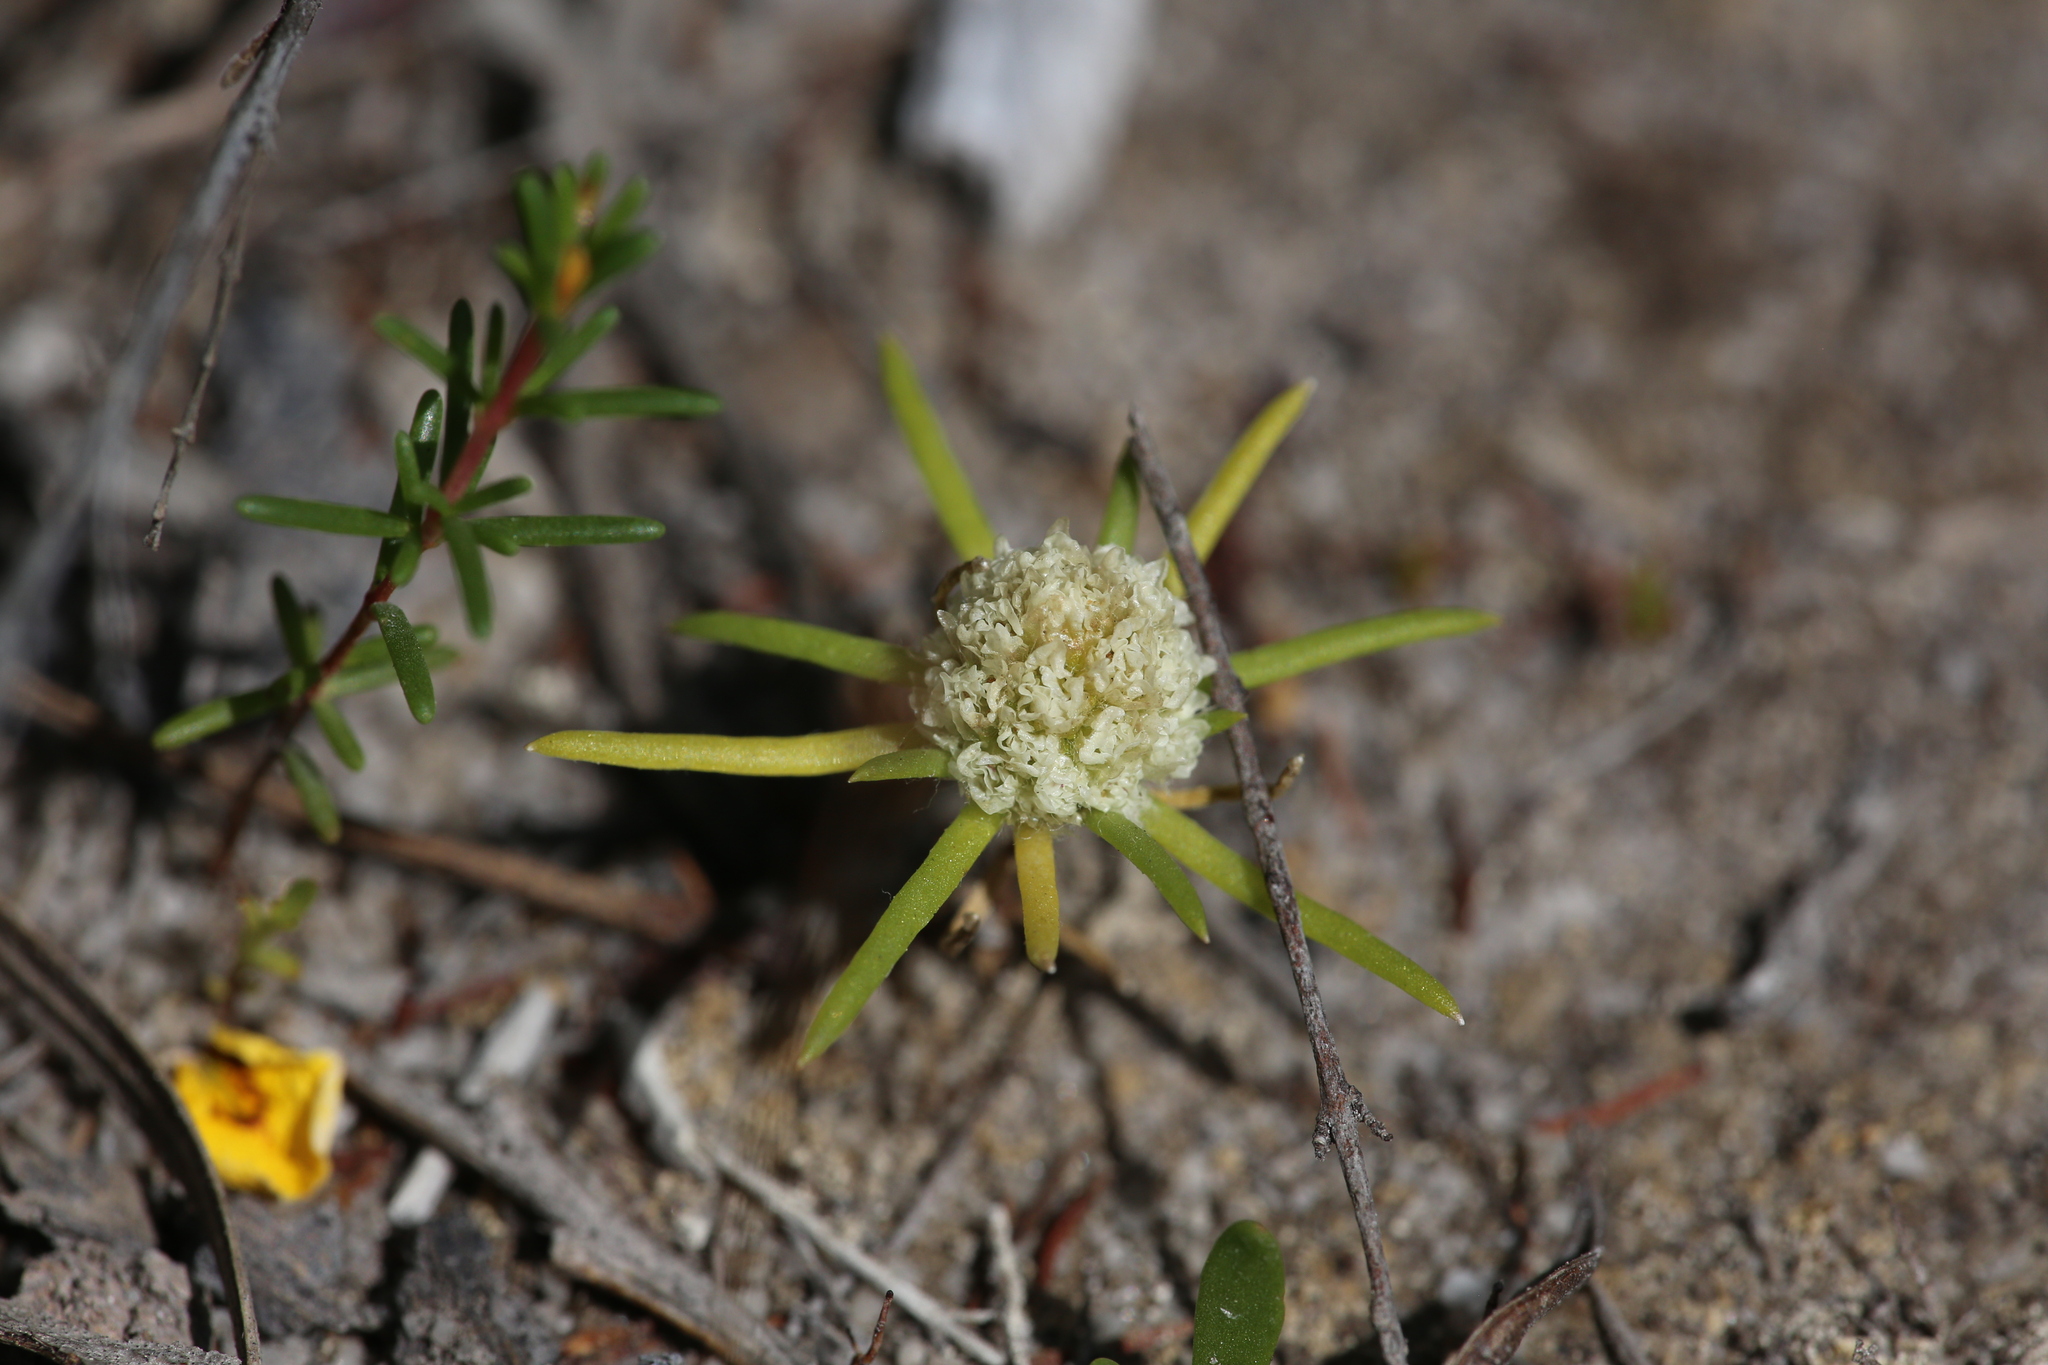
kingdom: Plantae
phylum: Tracheophyta
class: Magnoliopsida
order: Asterales
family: Asteraceae
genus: Siloxerus
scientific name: Siloxerus humifusus
